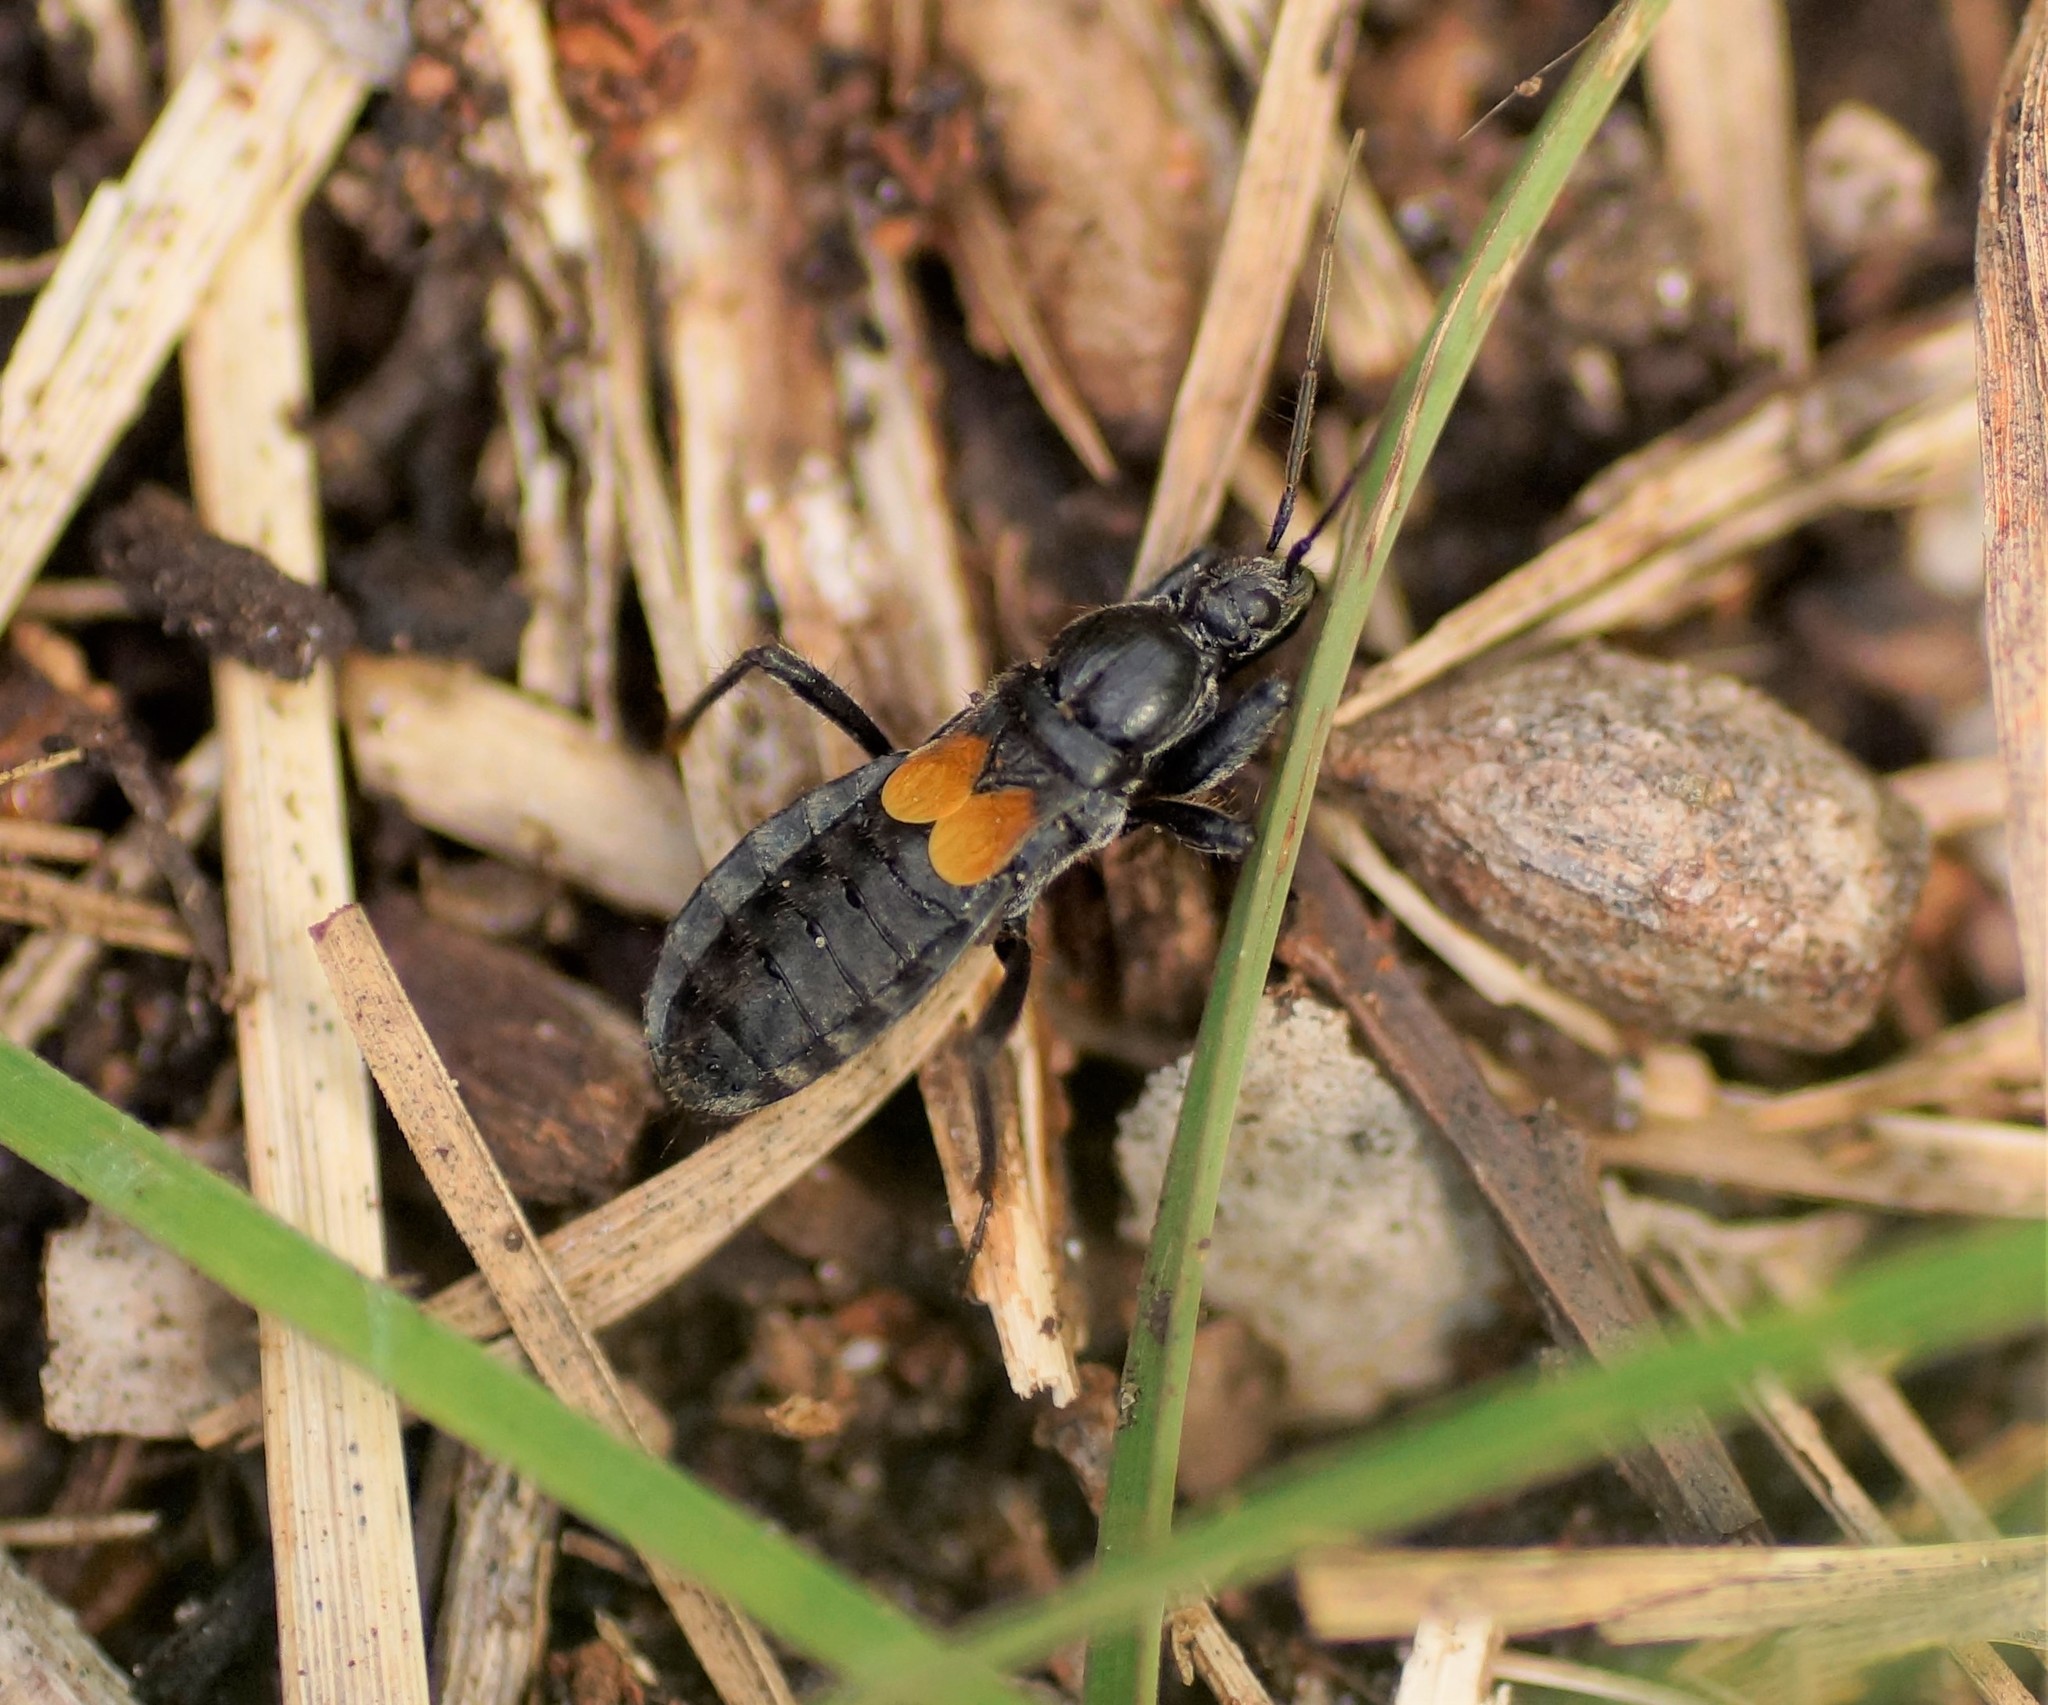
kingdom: Animalia
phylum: Arthropoda
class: Insecta
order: Hemiptera
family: Reduviidae
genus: Peirates
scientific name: Peirates
